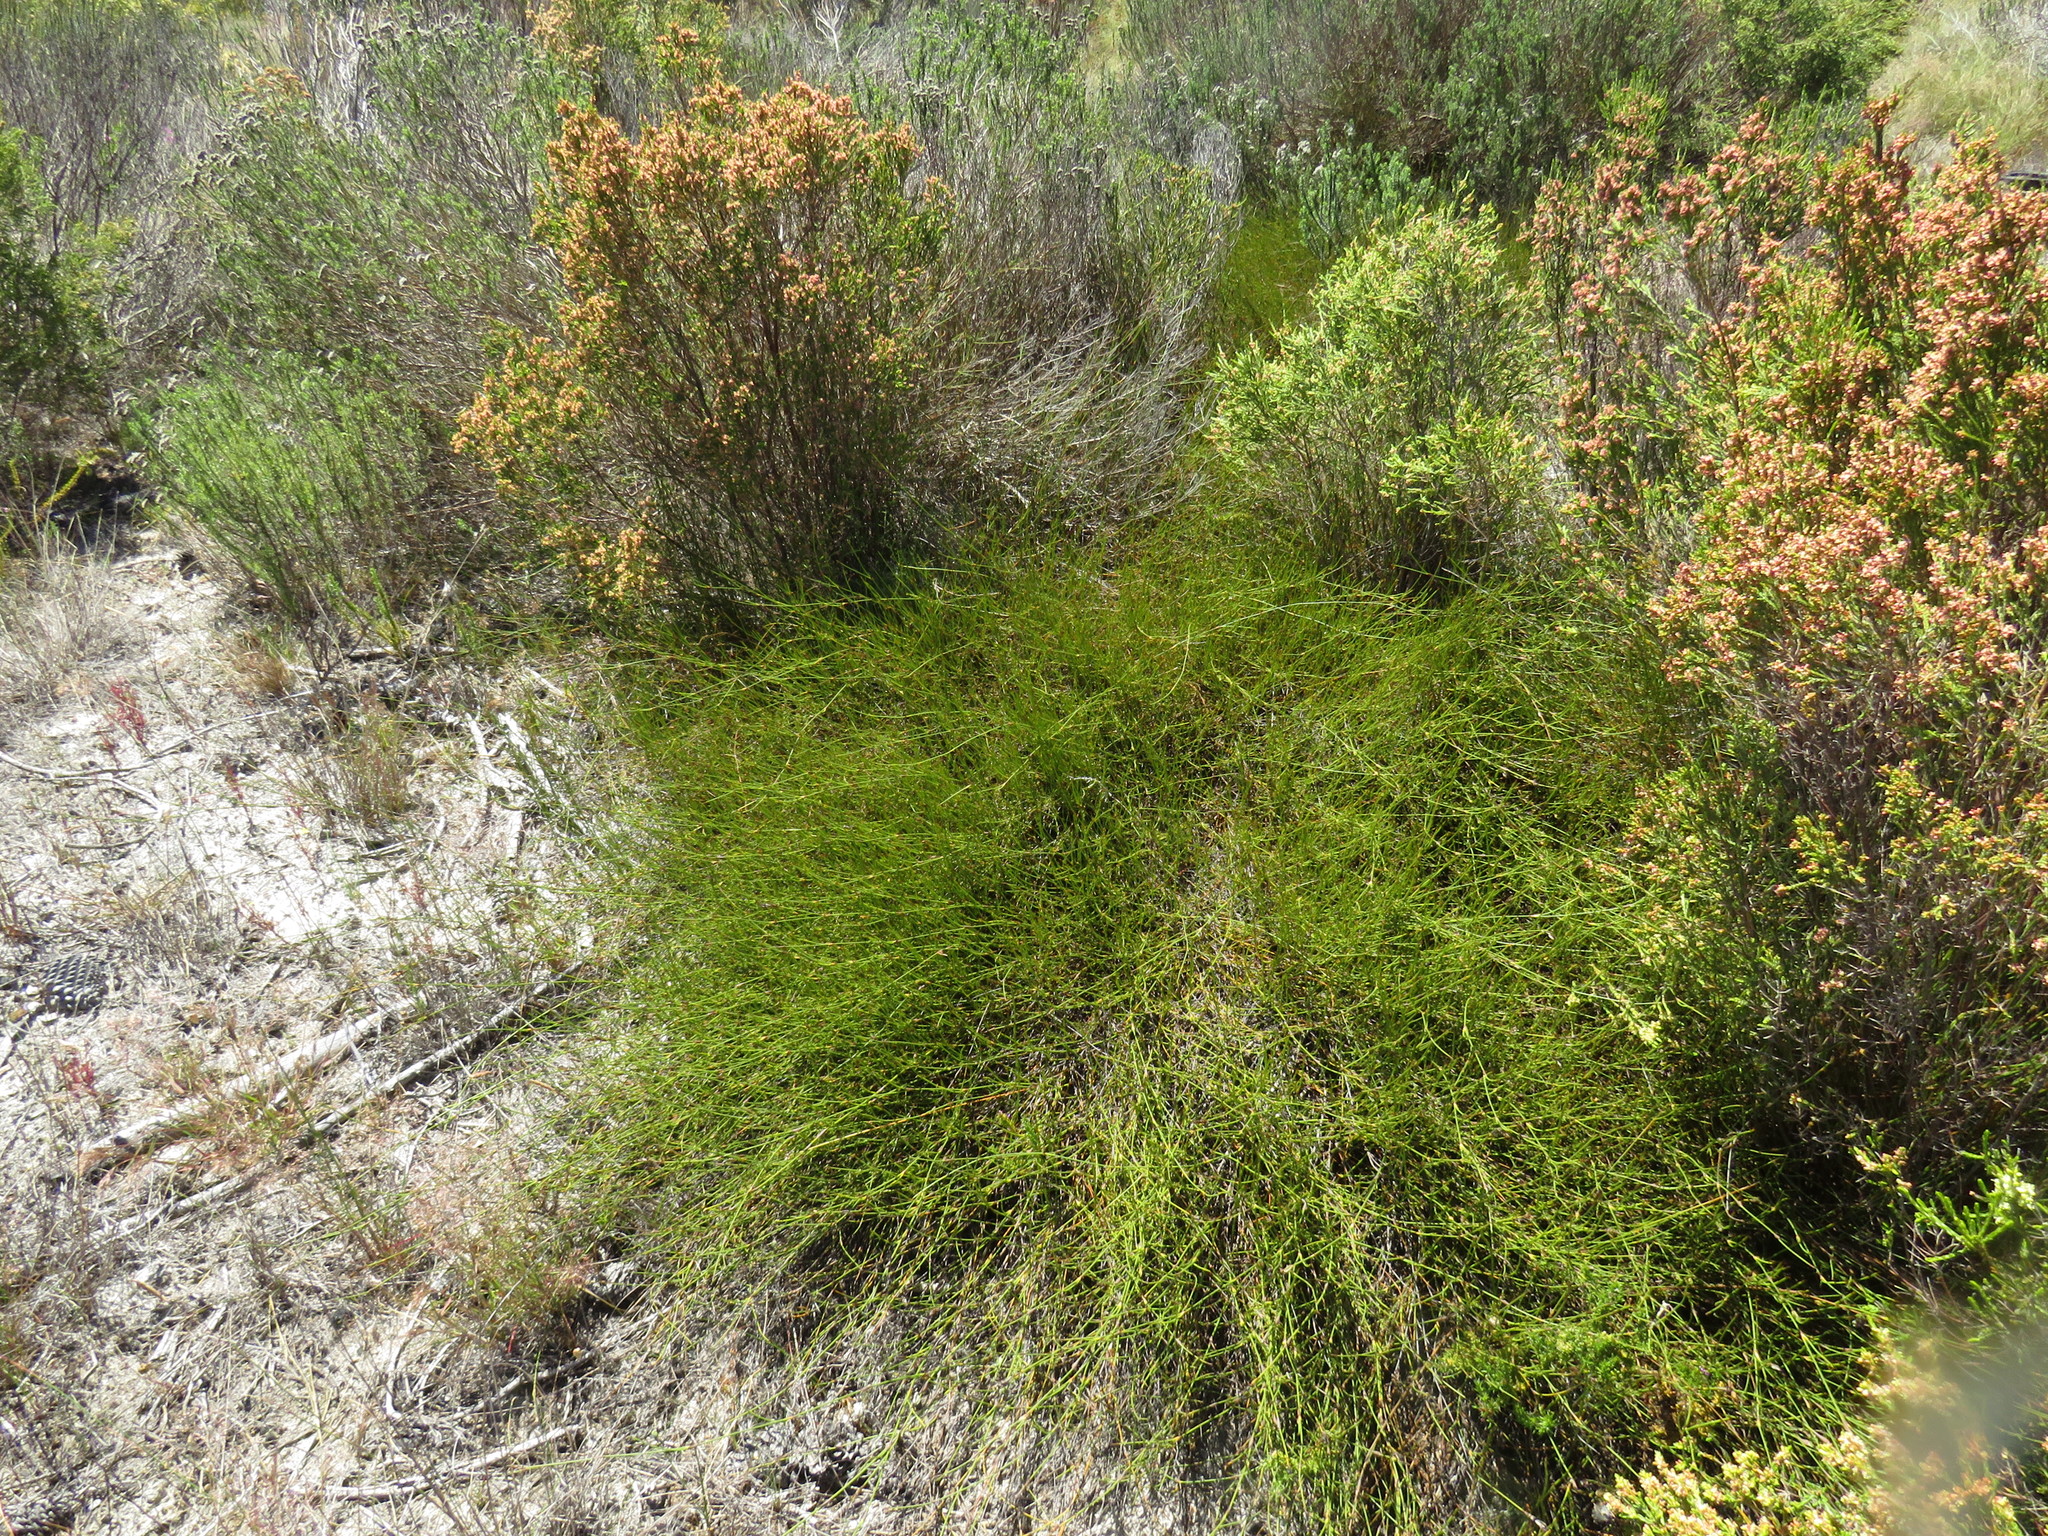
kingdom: Plantae
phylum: Tracheophyta
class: Liliopsida
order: Poales
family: Restionaceae
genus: Willdenowia
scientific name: Willdenowia sulcata
